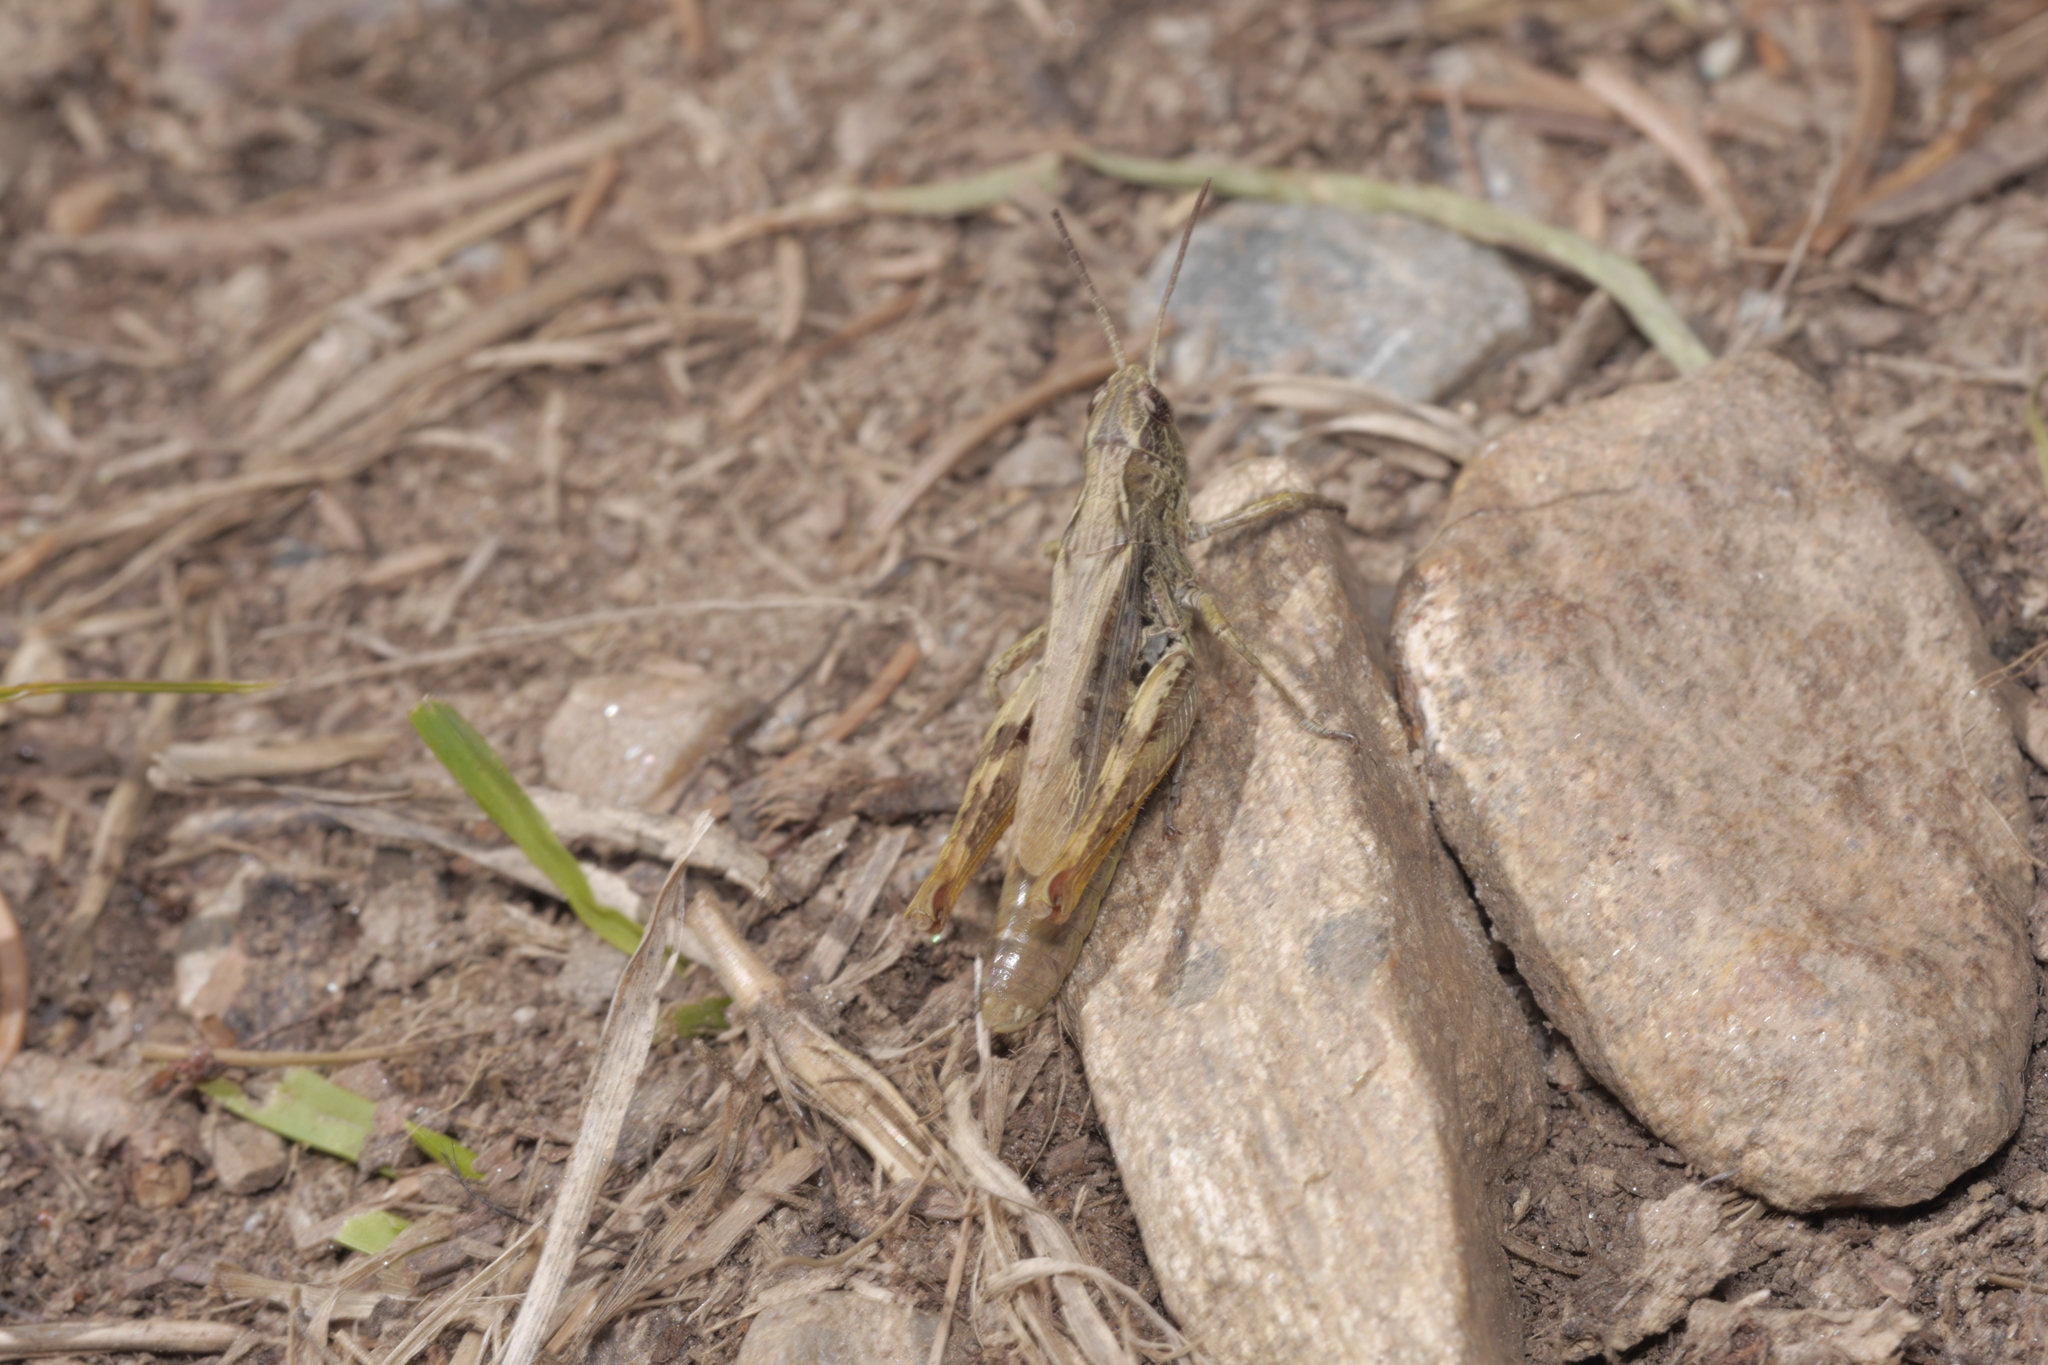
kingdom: Animalia
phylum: Arthropoda
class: Insecta
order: Orthoptera
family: Acrididae
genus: Chorthippus
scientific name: Chorthippus apricarius
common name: Upland field grasshopper
